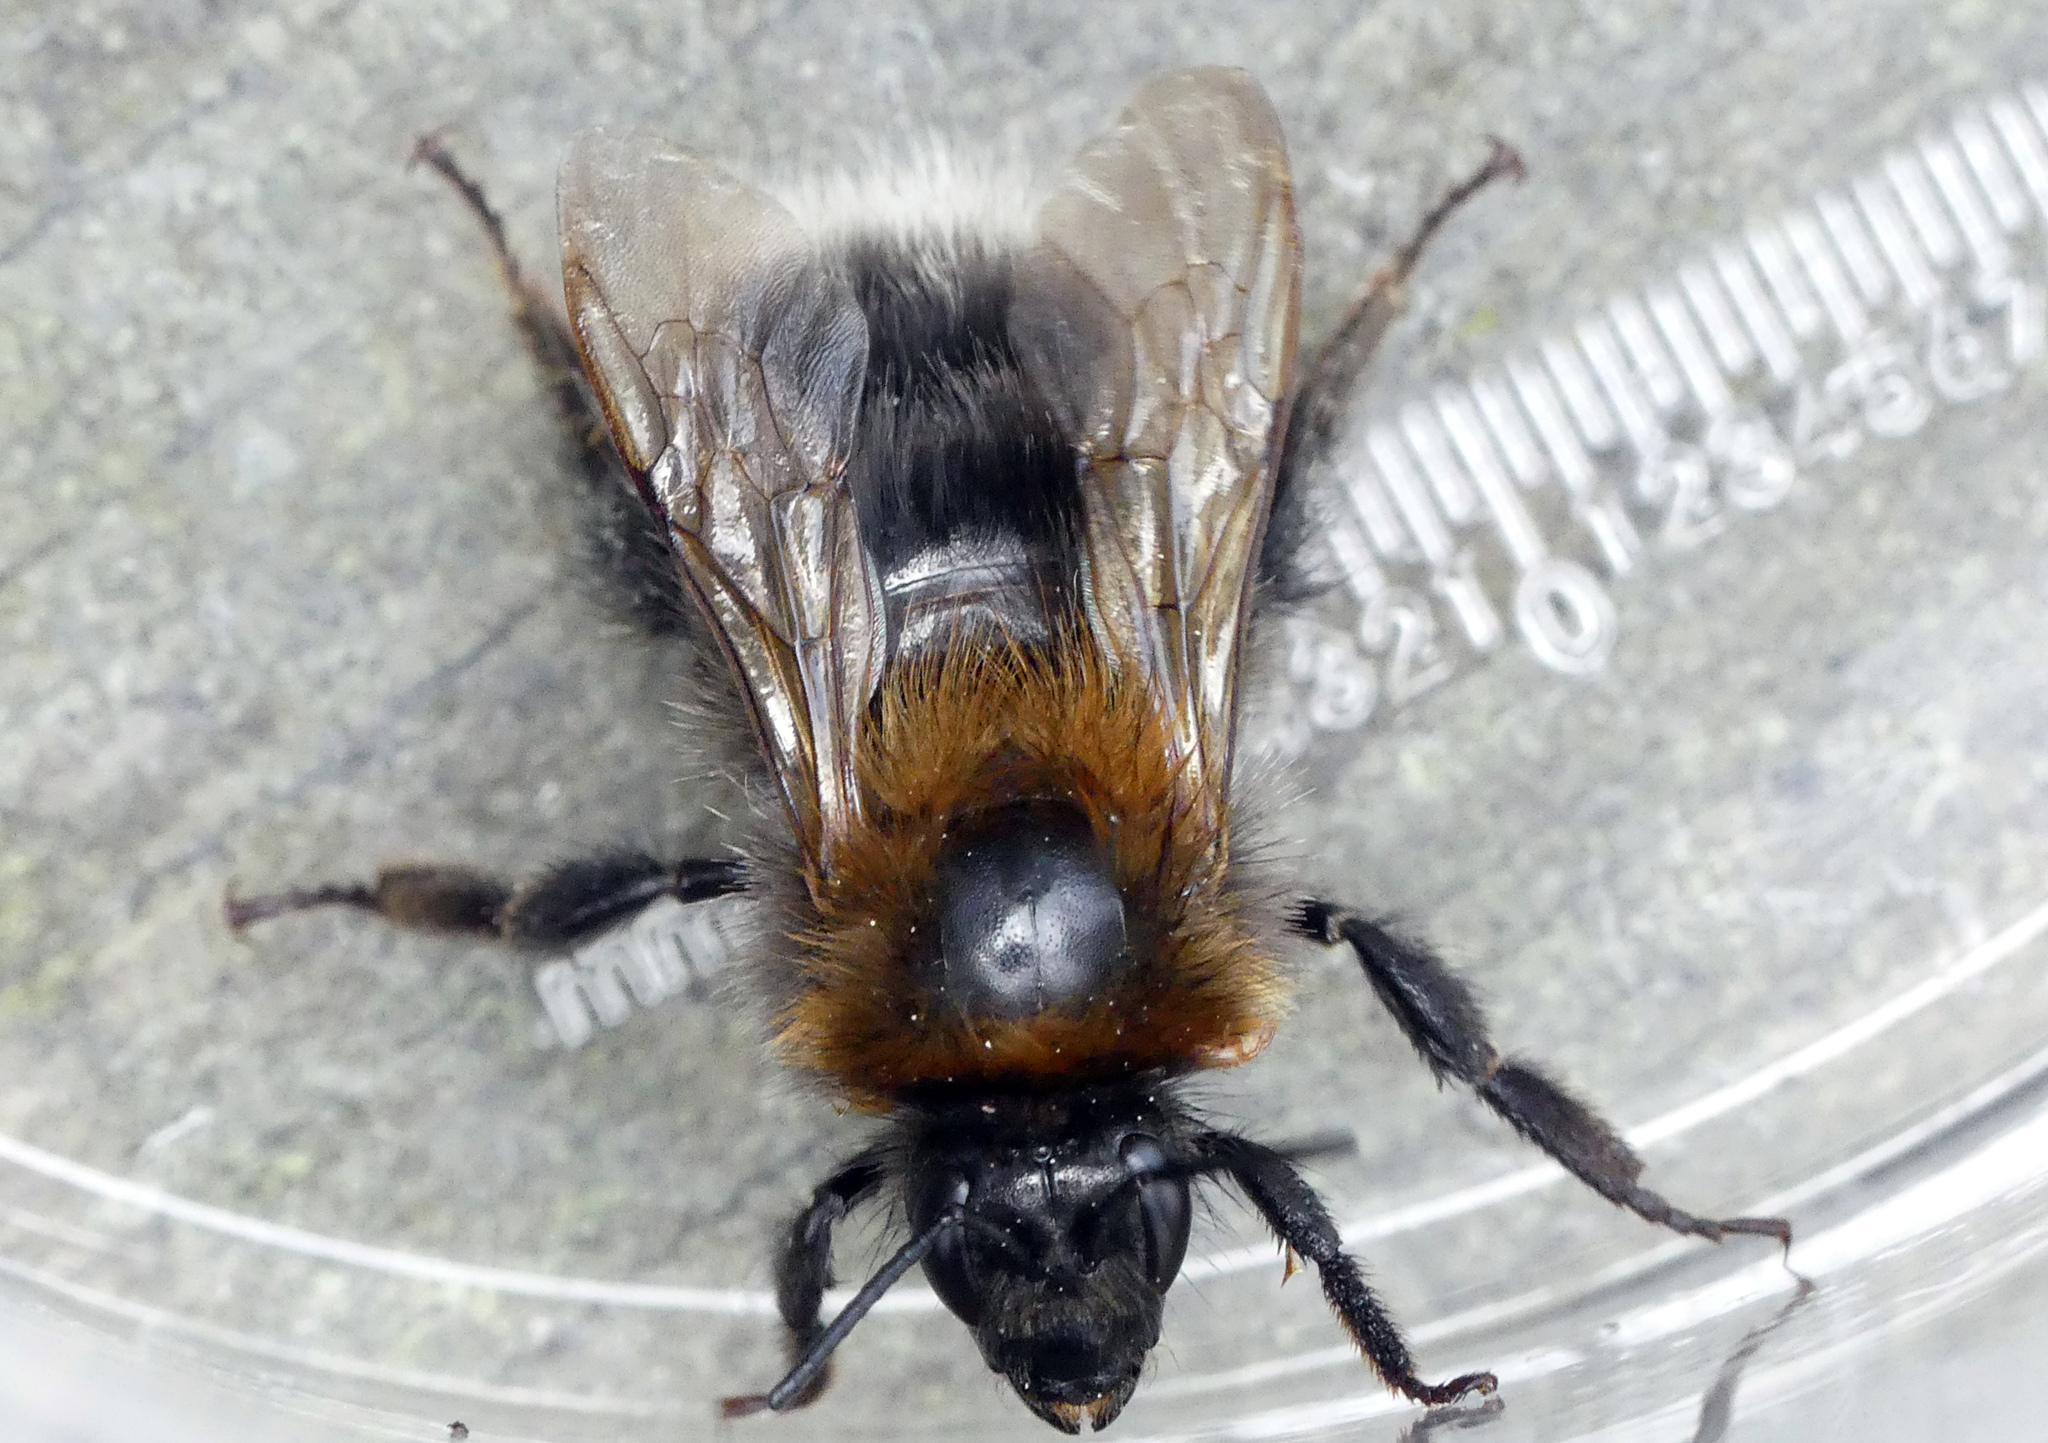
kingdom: Animalia
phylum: Arthropoda
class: Insecta
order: Hymenoptera
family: Apidae
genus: Bombus
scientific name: Bombus hypnorum
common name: New garden bumblebee
